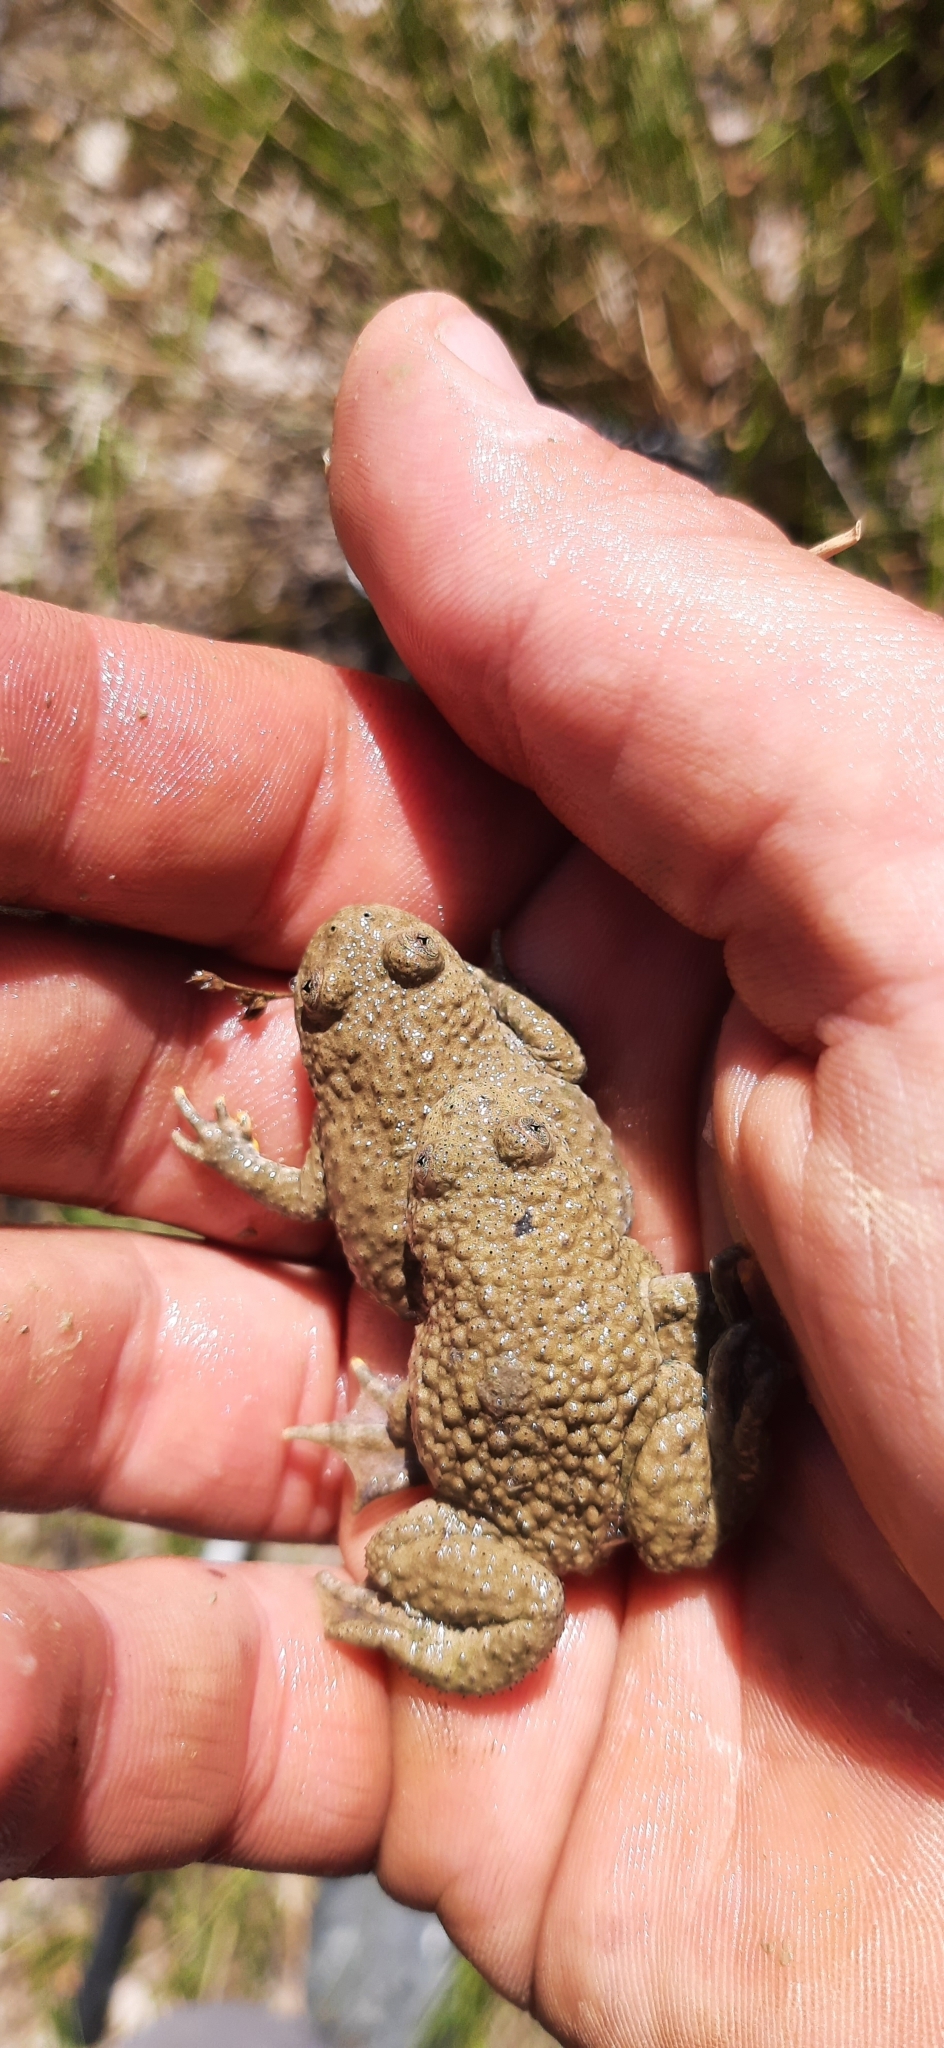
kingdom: Animalia
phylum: Chordata
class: Amphibia
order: Anura
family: Bombinatoridae
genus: Bombina
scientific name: Bombina variegata
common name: Yellow-bellied toad
